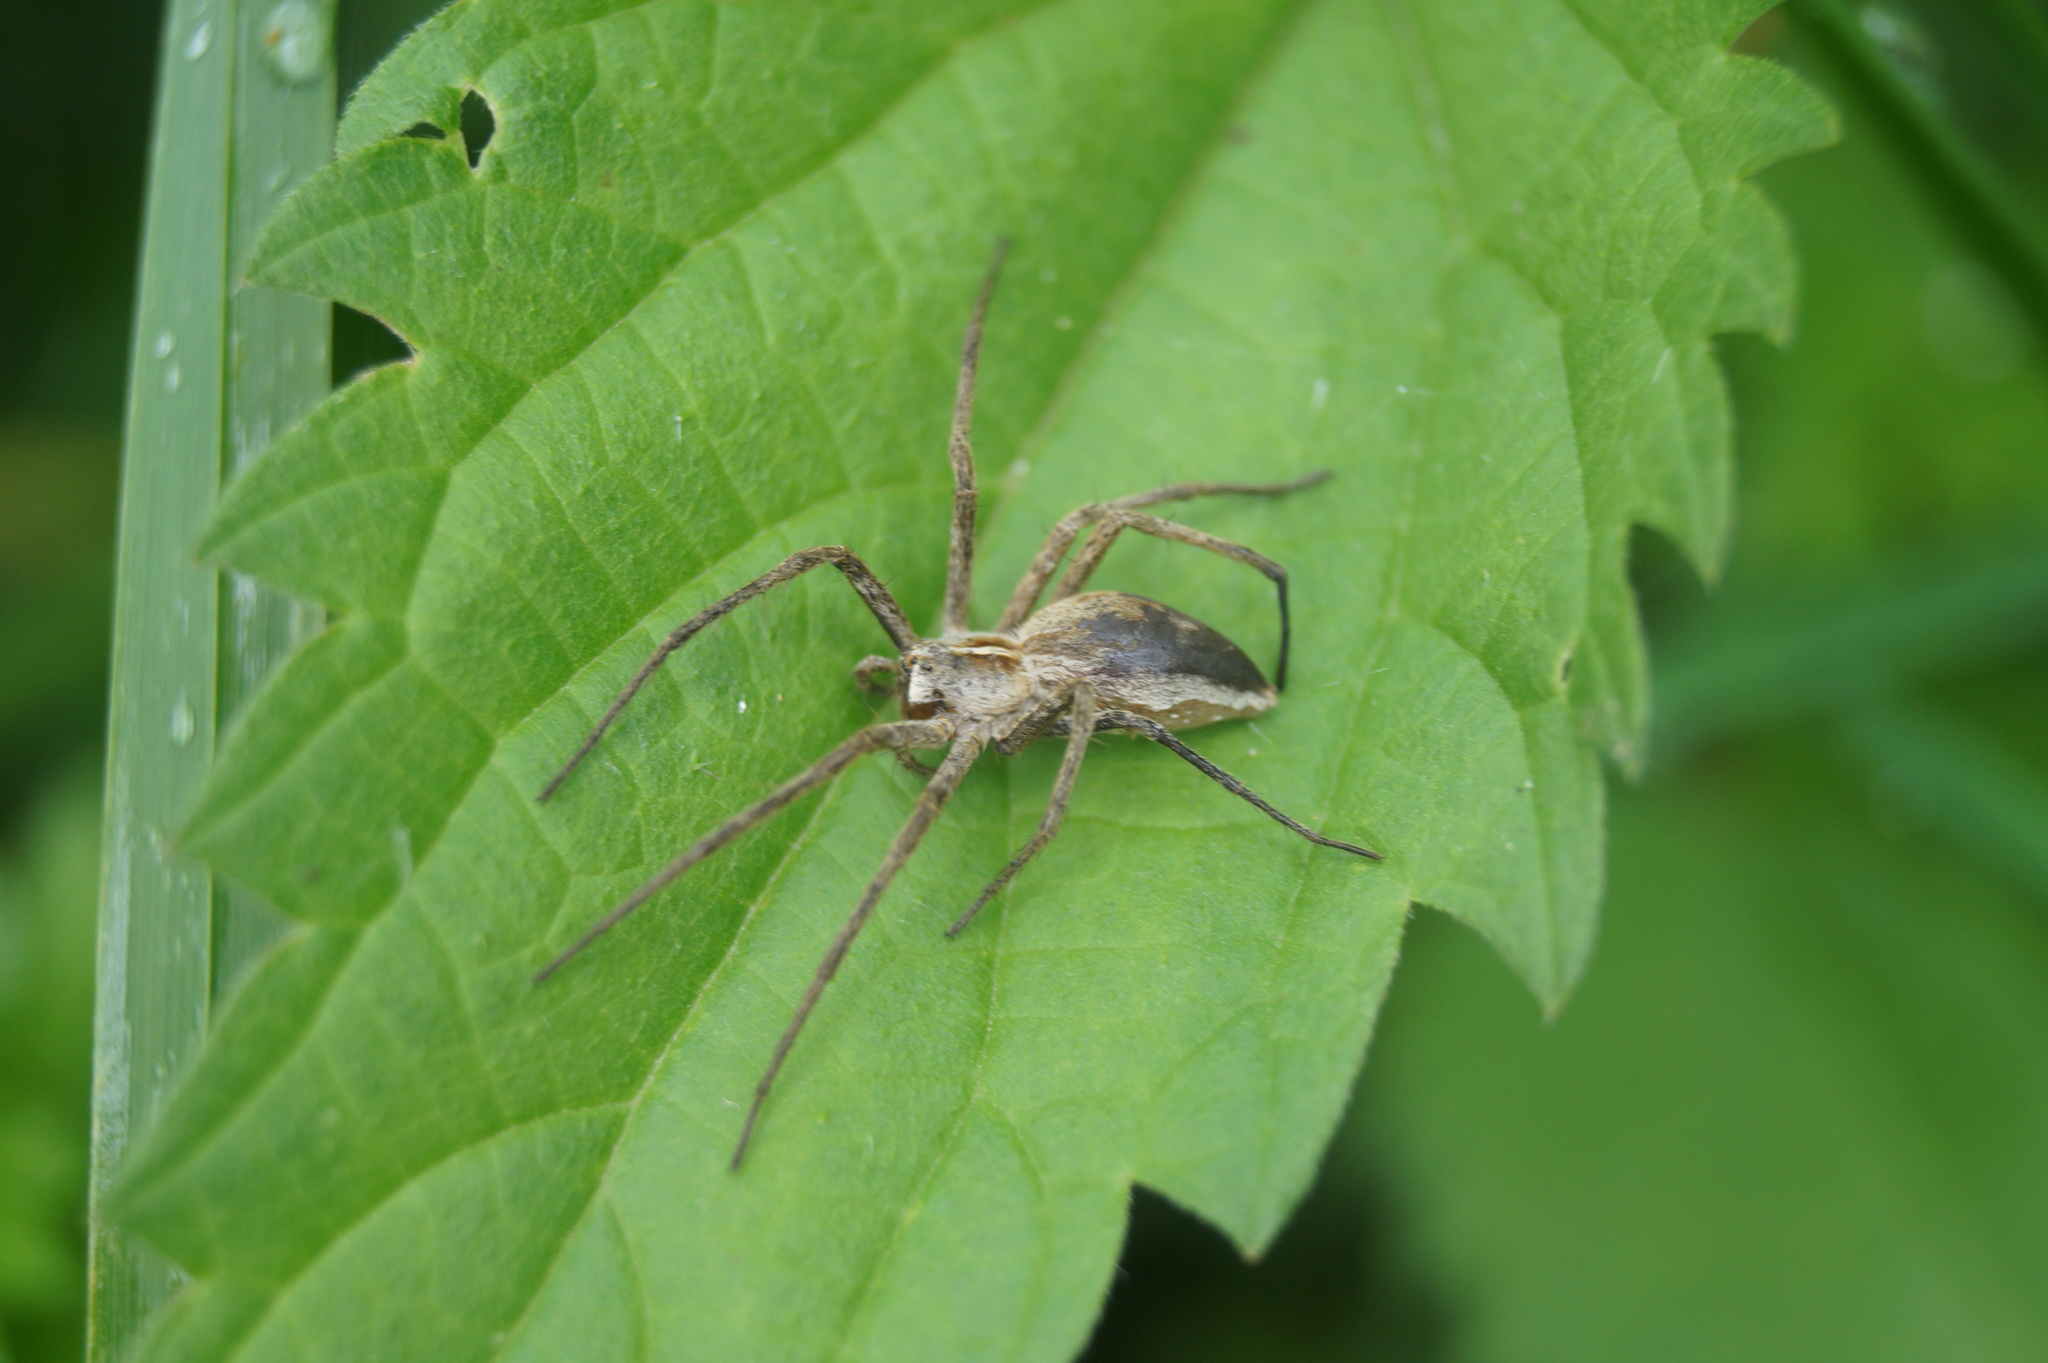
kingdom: Animalia
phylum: Arthropoda
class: Arachnida
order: Araneae
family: Pisauridae
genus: Pisaura
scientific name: Pisaura mirabilis
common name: Tent spider
